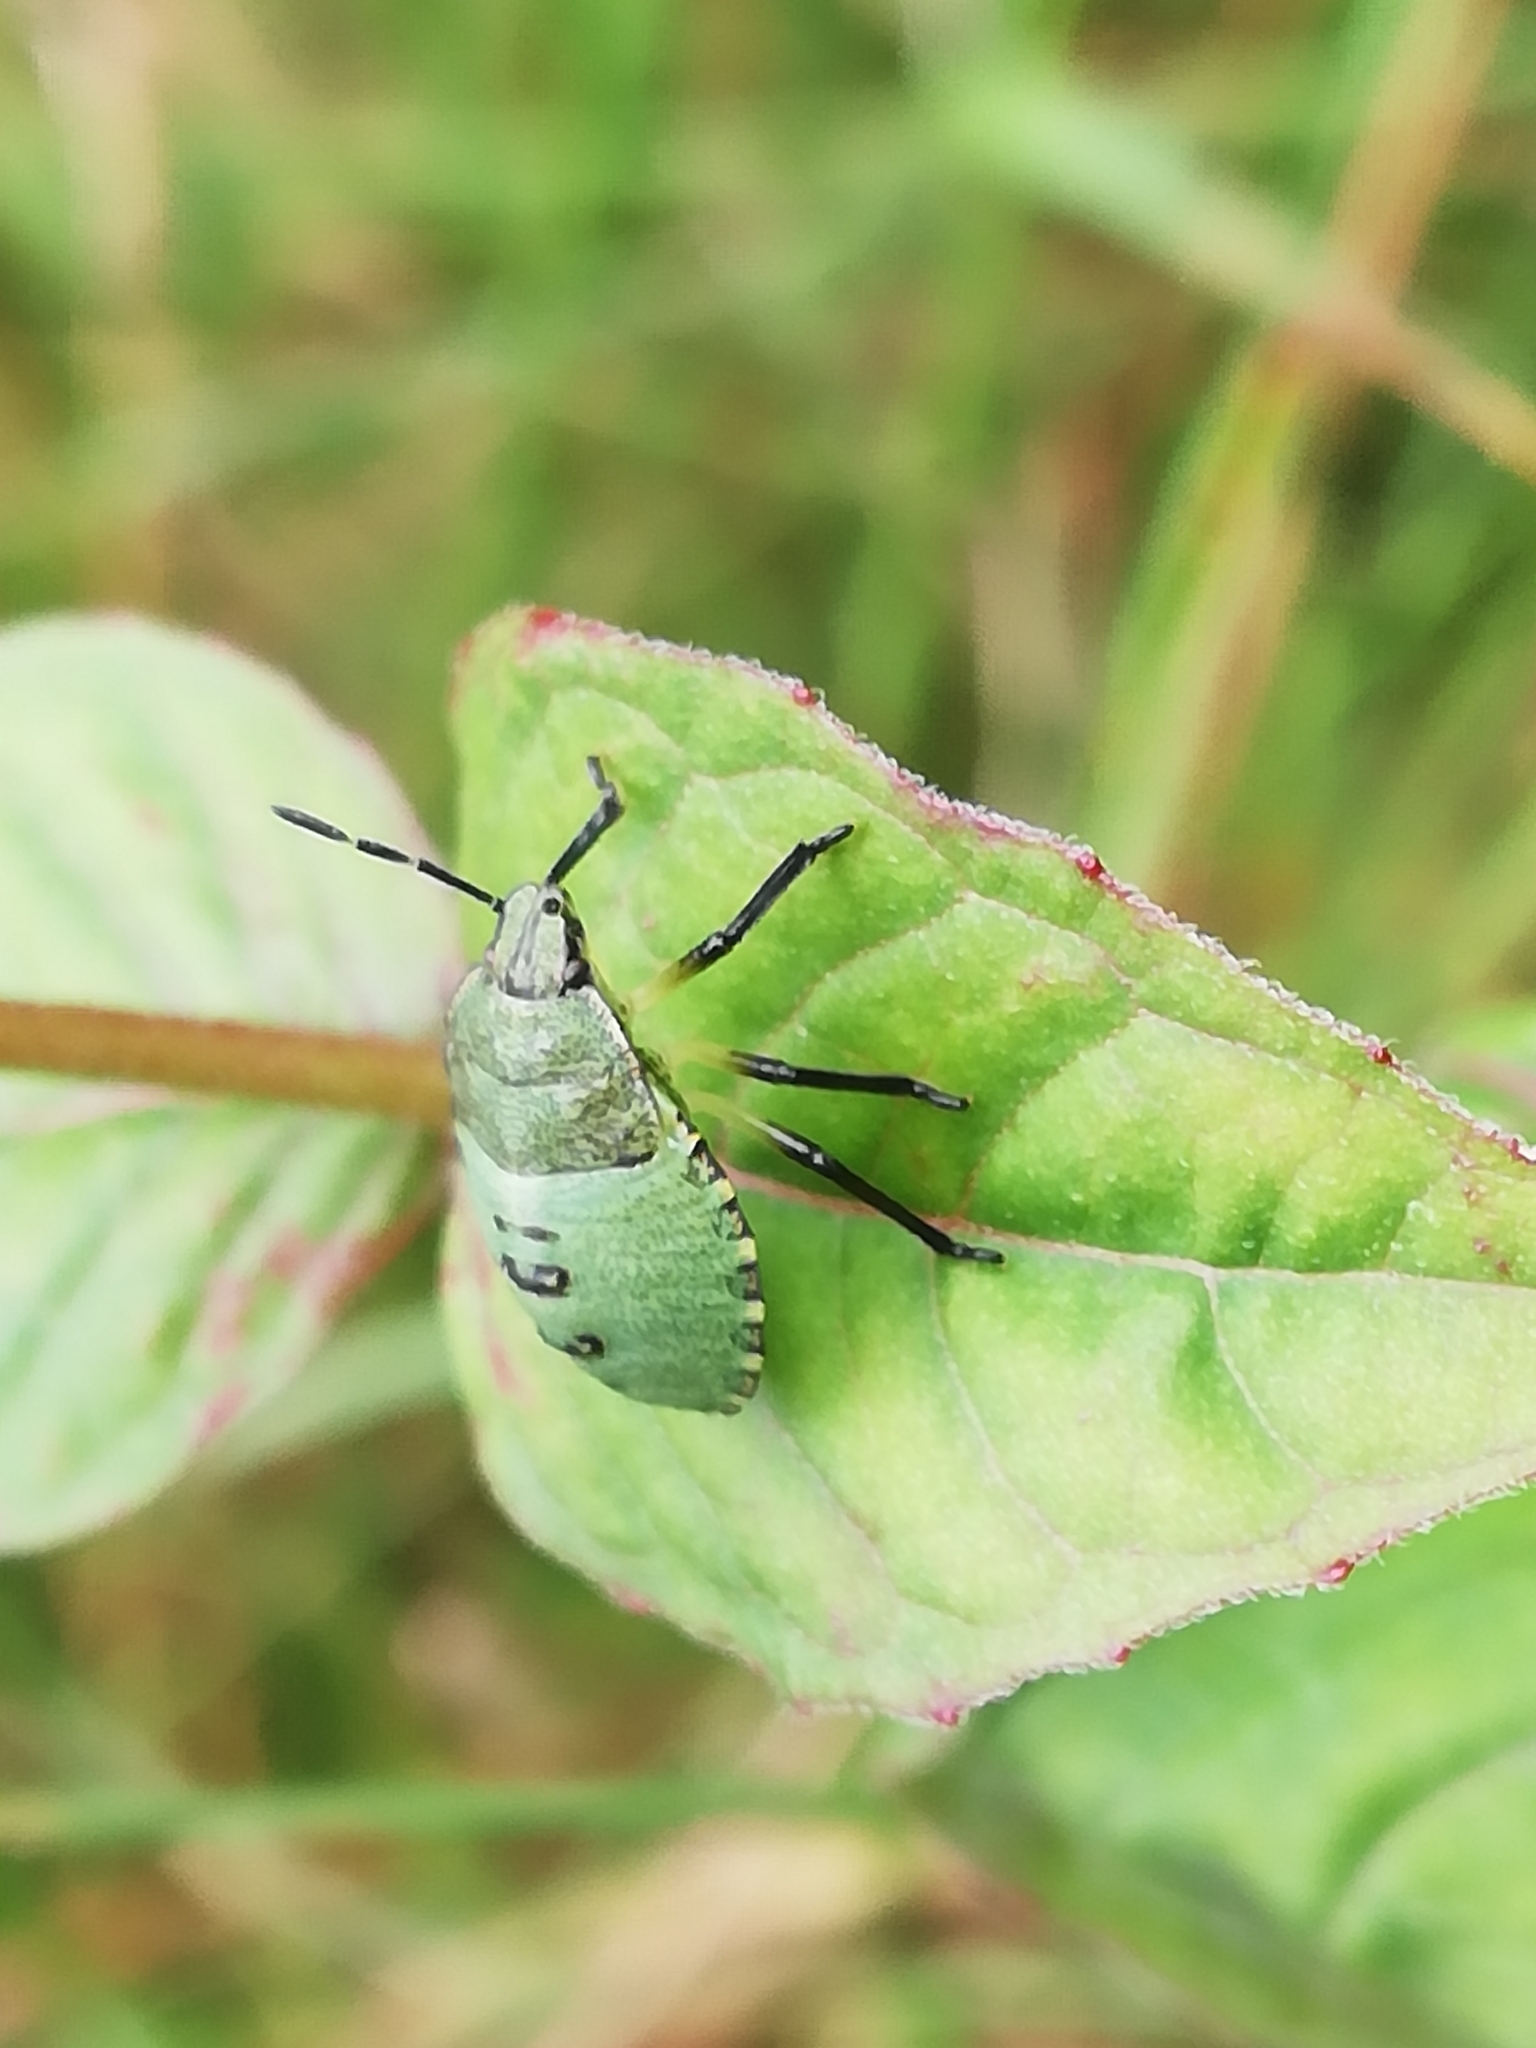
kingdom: Animalia
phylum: Arthropoda
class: Insecta
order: Hemiptera
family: Pentatomidae
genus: Palomena
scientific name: Palomena prasina
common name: Green shieldbug
